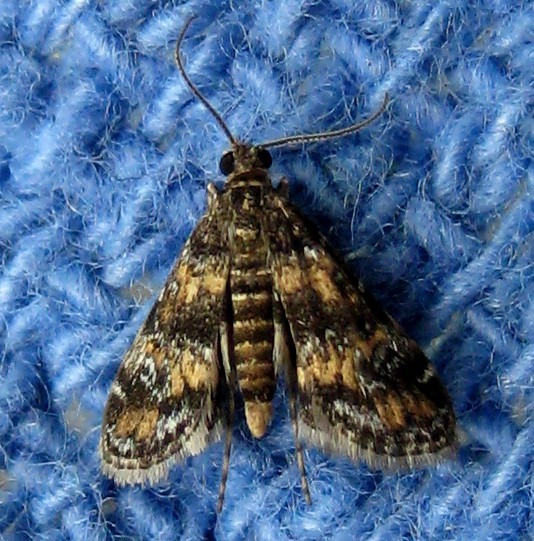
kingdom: Animalia
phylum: Arthropoda
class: Insecta
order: Lepidoptera
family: Crambidae
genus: Elophila
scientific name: Elophila obliteralis
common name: Waterlily leafcutter moth
